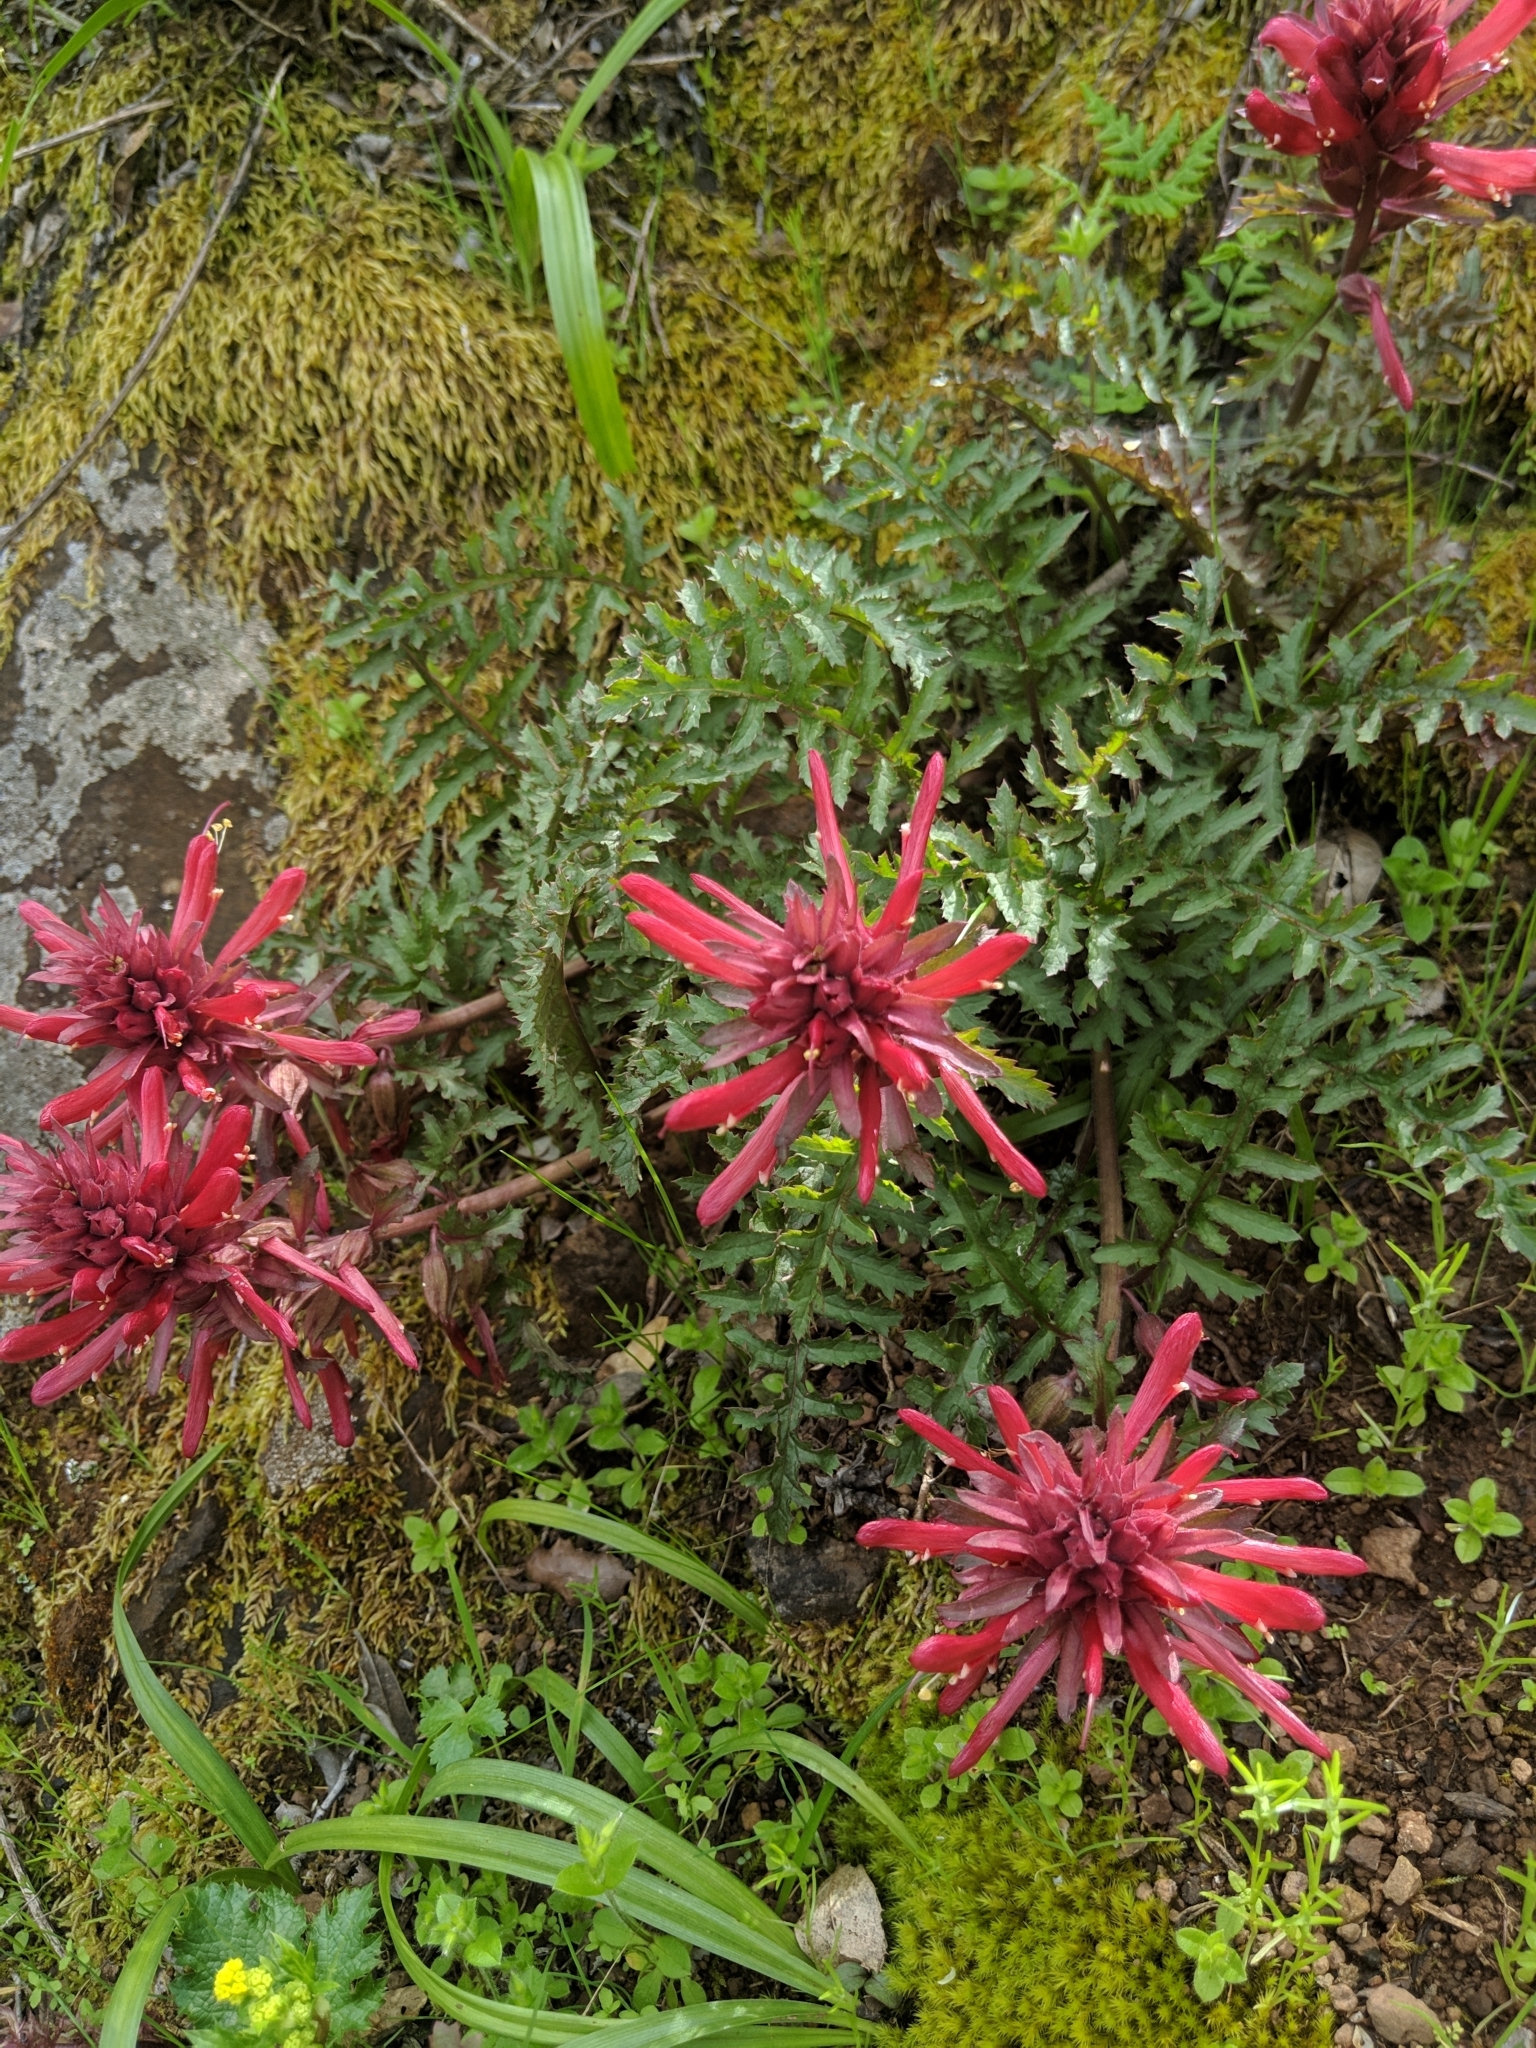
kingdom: Plantae
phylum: Tracheophyta
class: Magnoliopsida
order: Lamiales
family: Orobanchaceae
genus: Pedicularis
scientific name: Pedicularis densiflora
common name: Indian warrior
